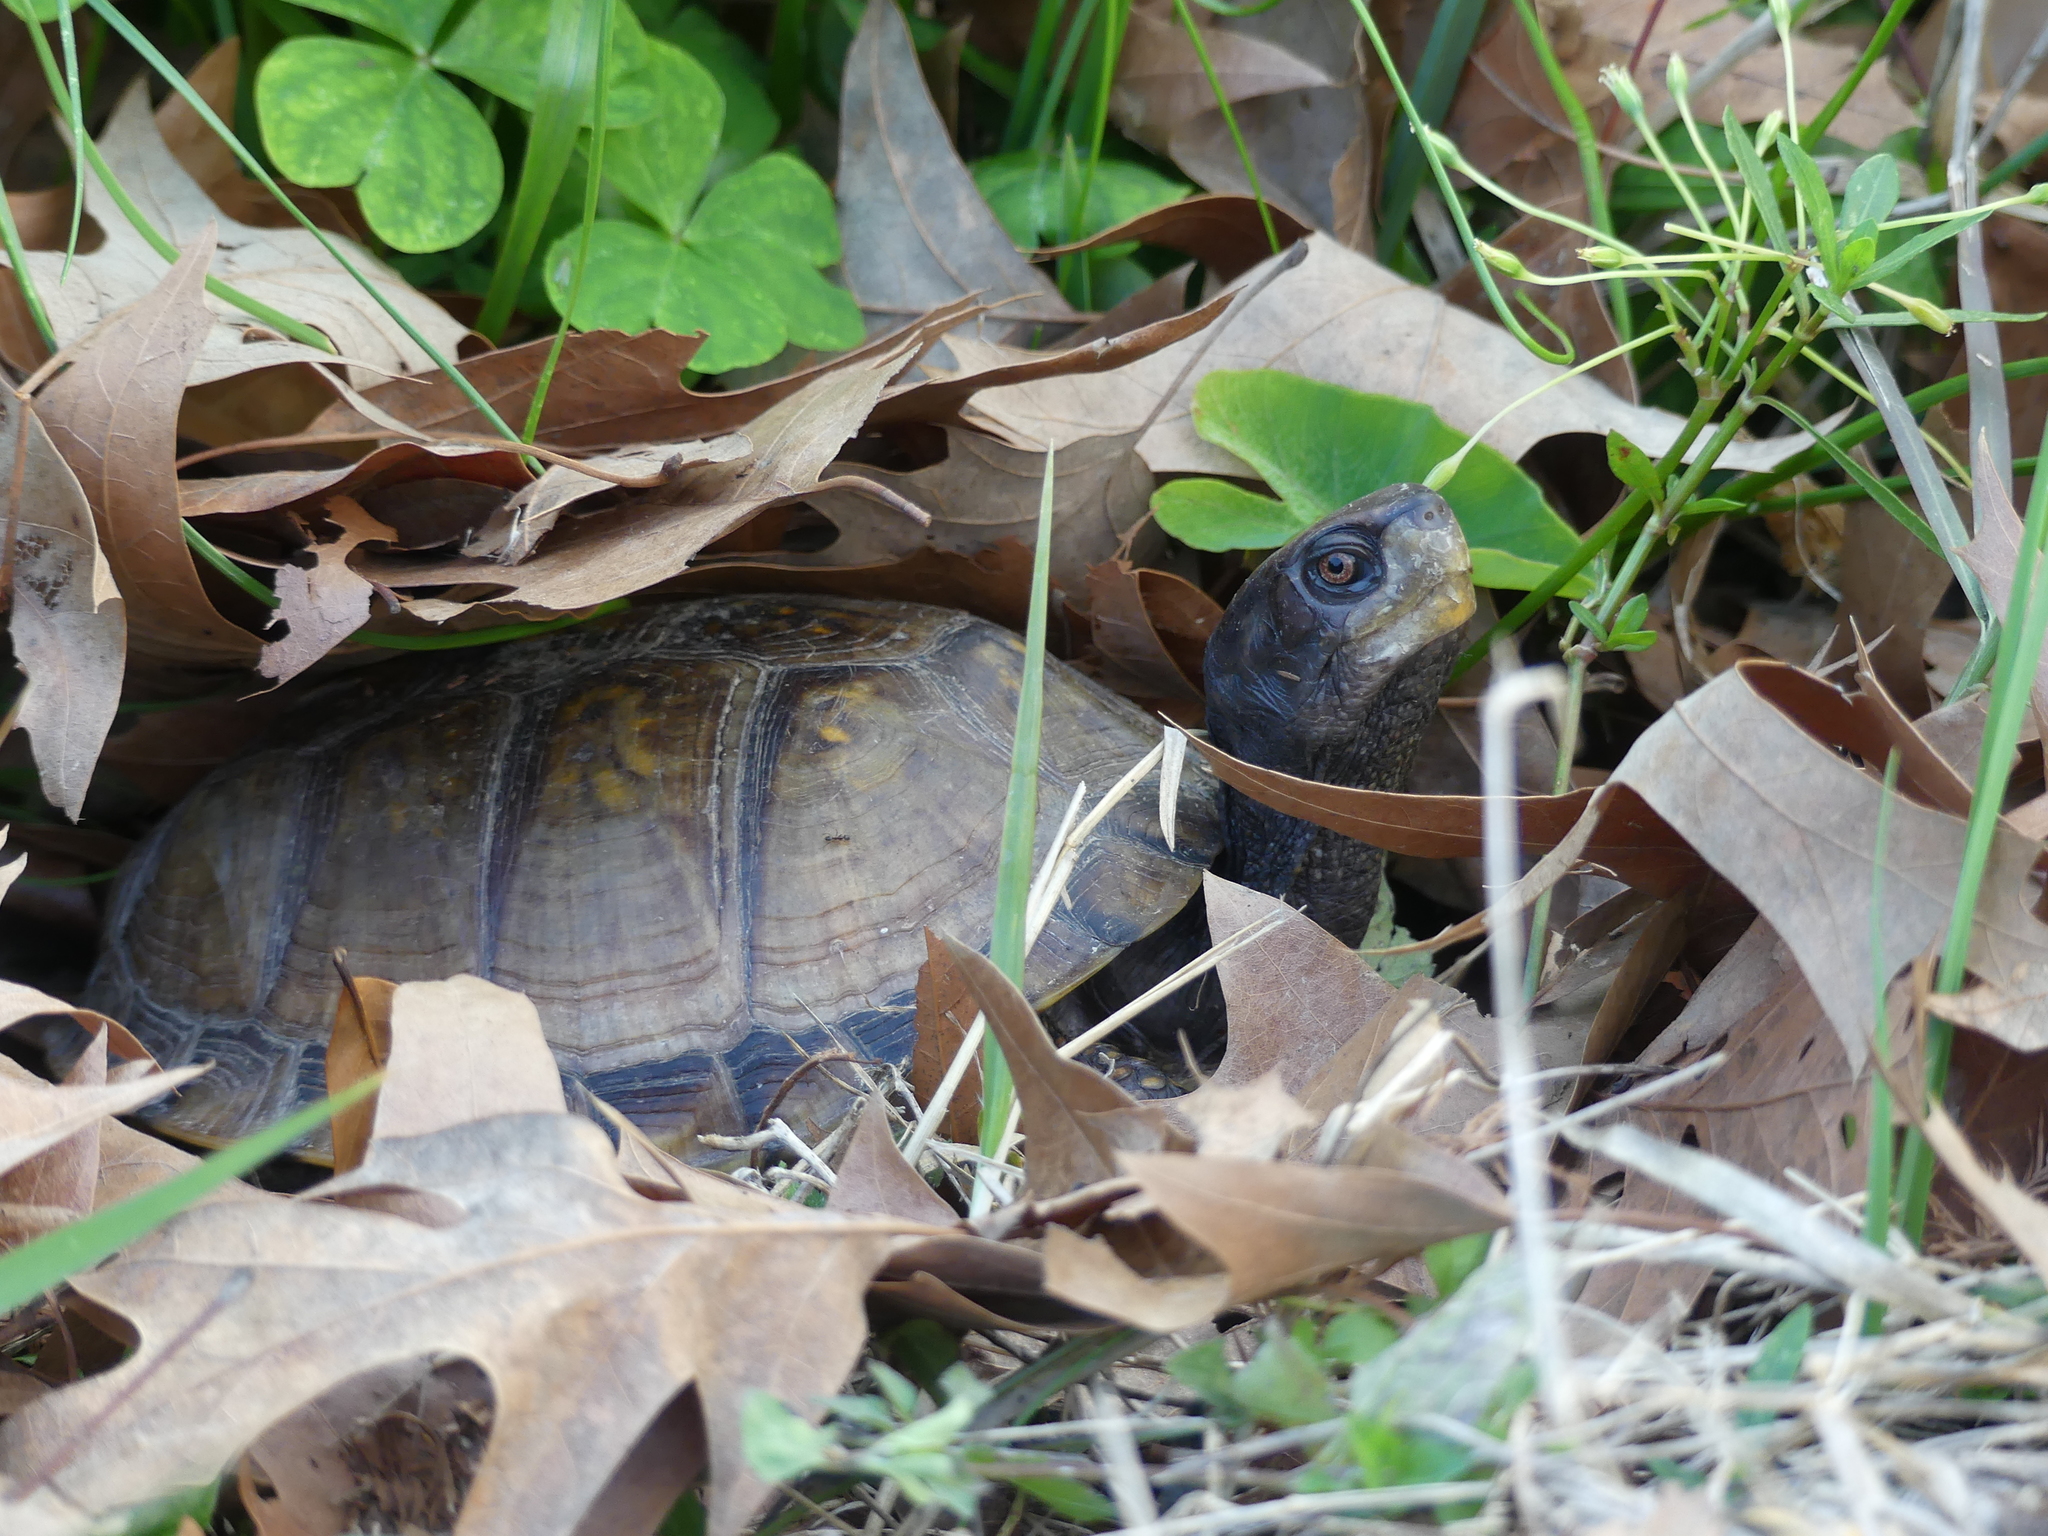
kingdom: Animalia
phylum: Chordata
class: Testudines
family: Emydidae
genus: Terrapene
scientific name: Terrapene carolina
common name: Common box turtle
